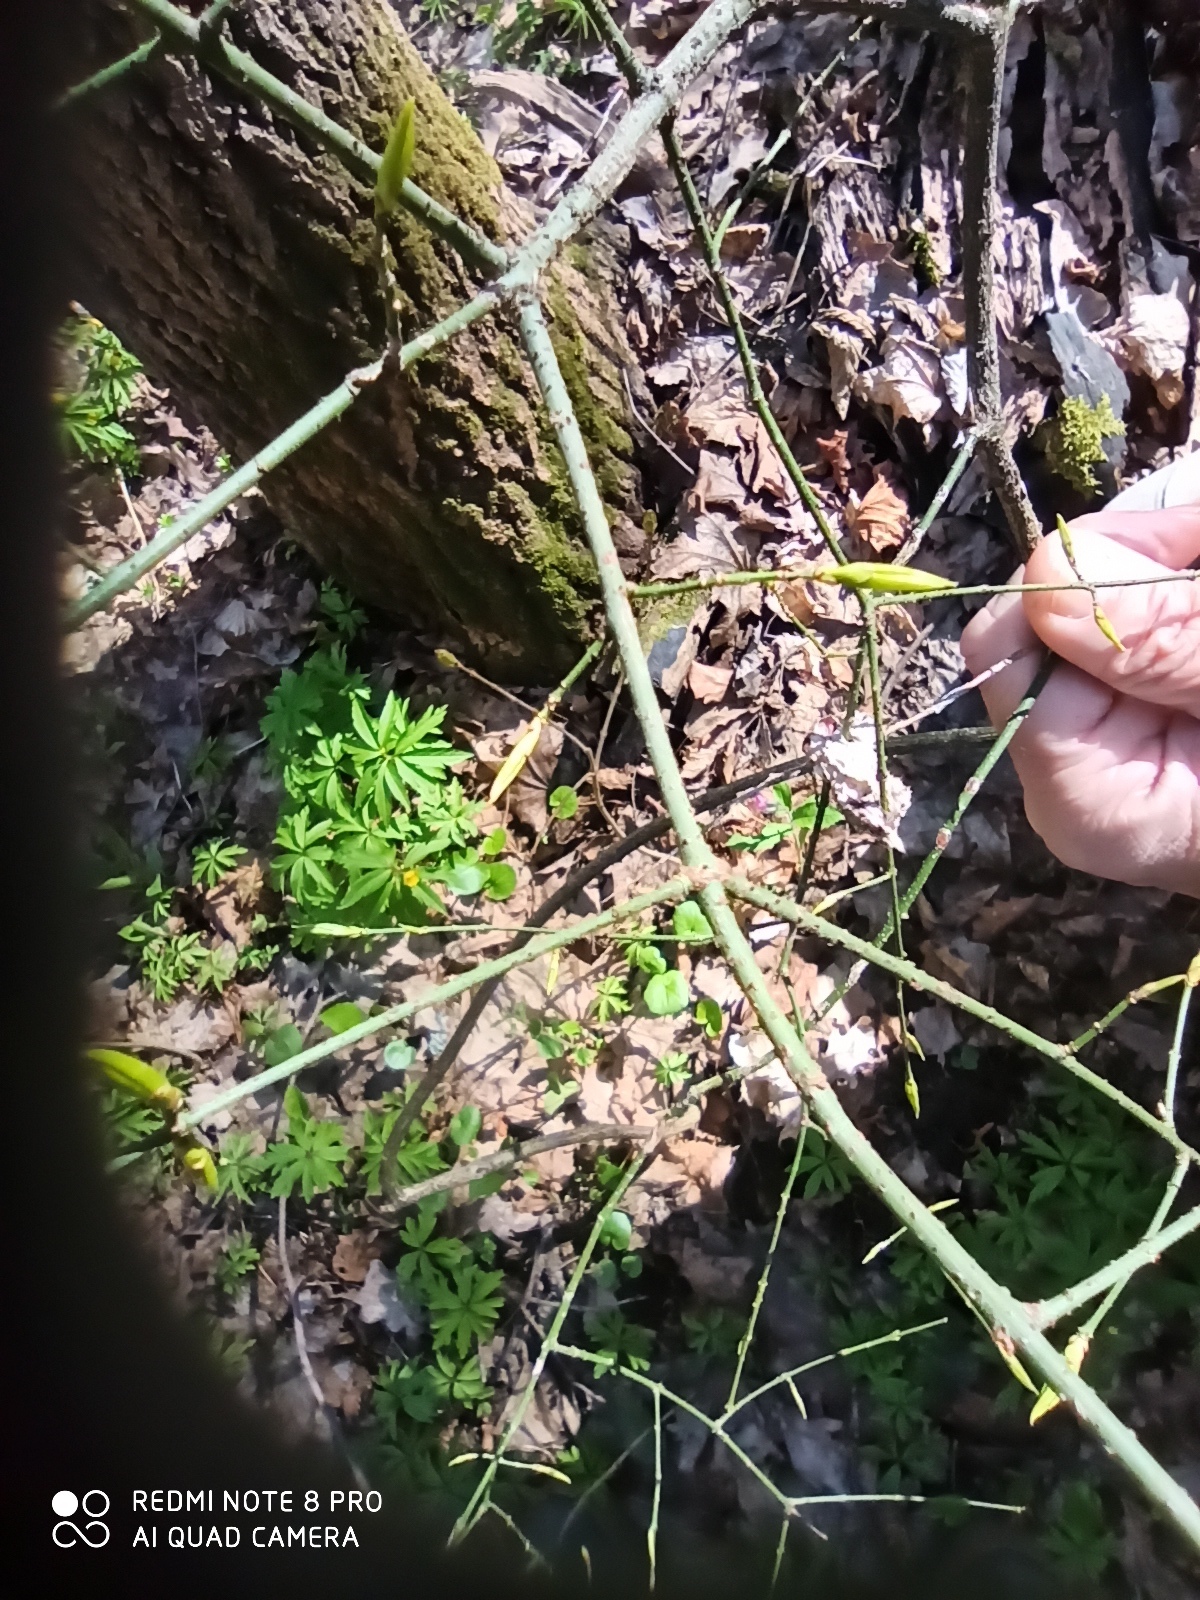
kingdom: Plantae
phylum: Tracheophyta
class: Magnoliopsida
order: Celastrales
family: Celastraceae
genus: Euonymus
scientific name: Euonymus verrucosus
